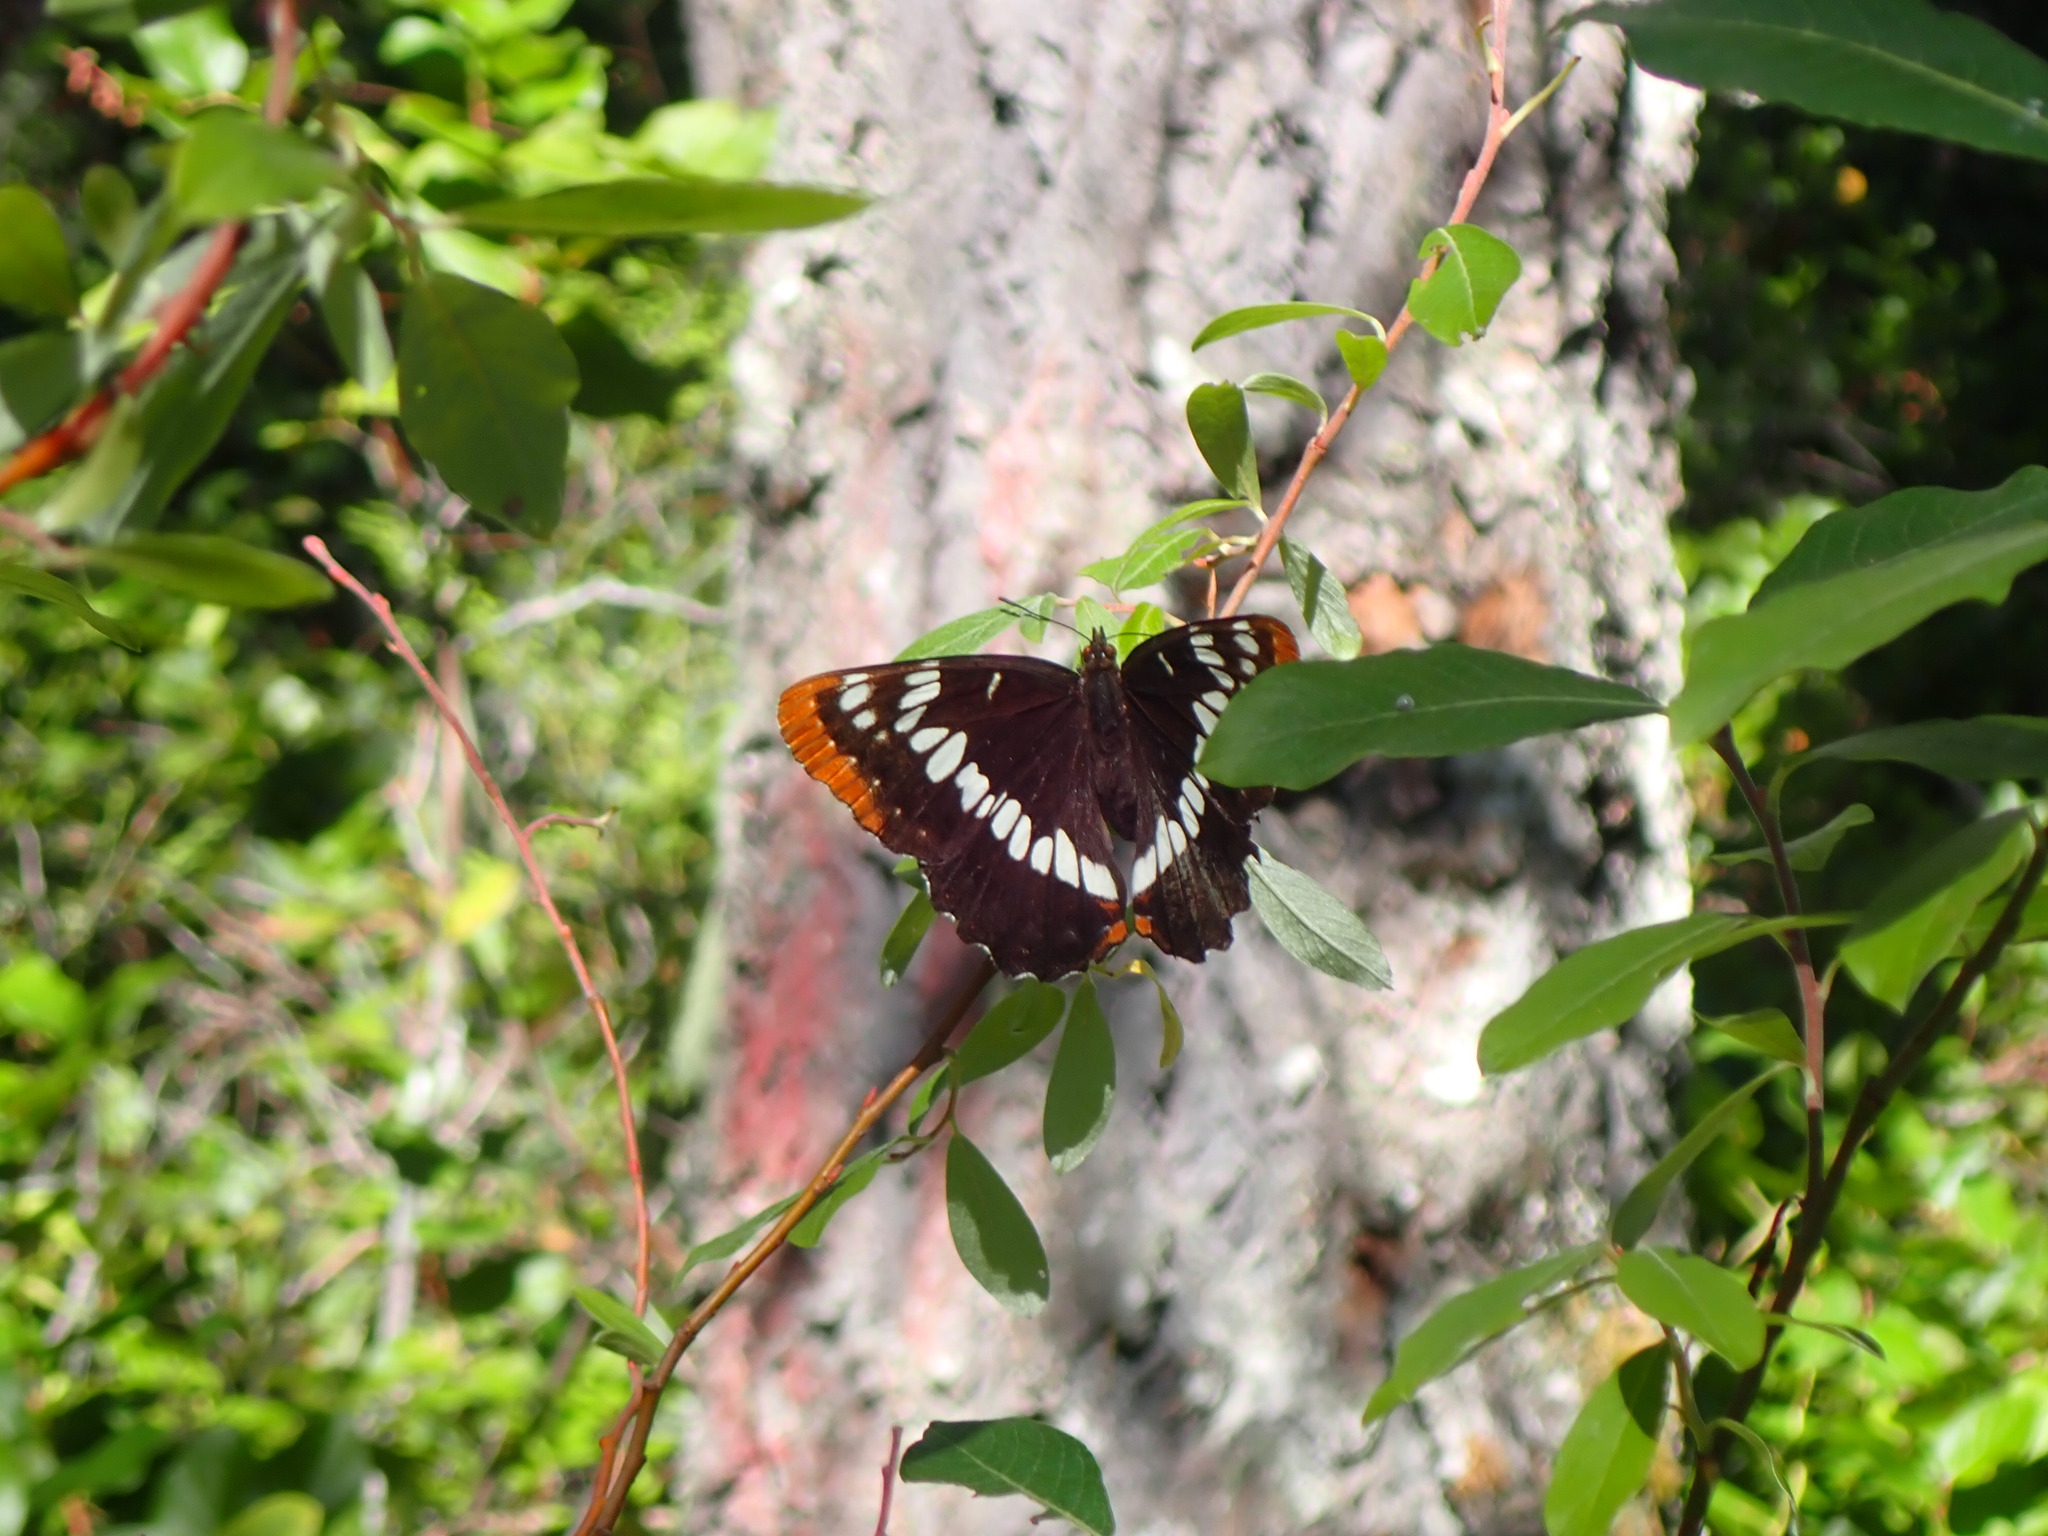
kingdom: Animalia
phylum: Arthropoda
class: Insecta
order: Lepidoptera
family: Nymphalidae
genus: Limenitis
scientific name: Limenitis lorquini
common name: Lorquin's admiral
